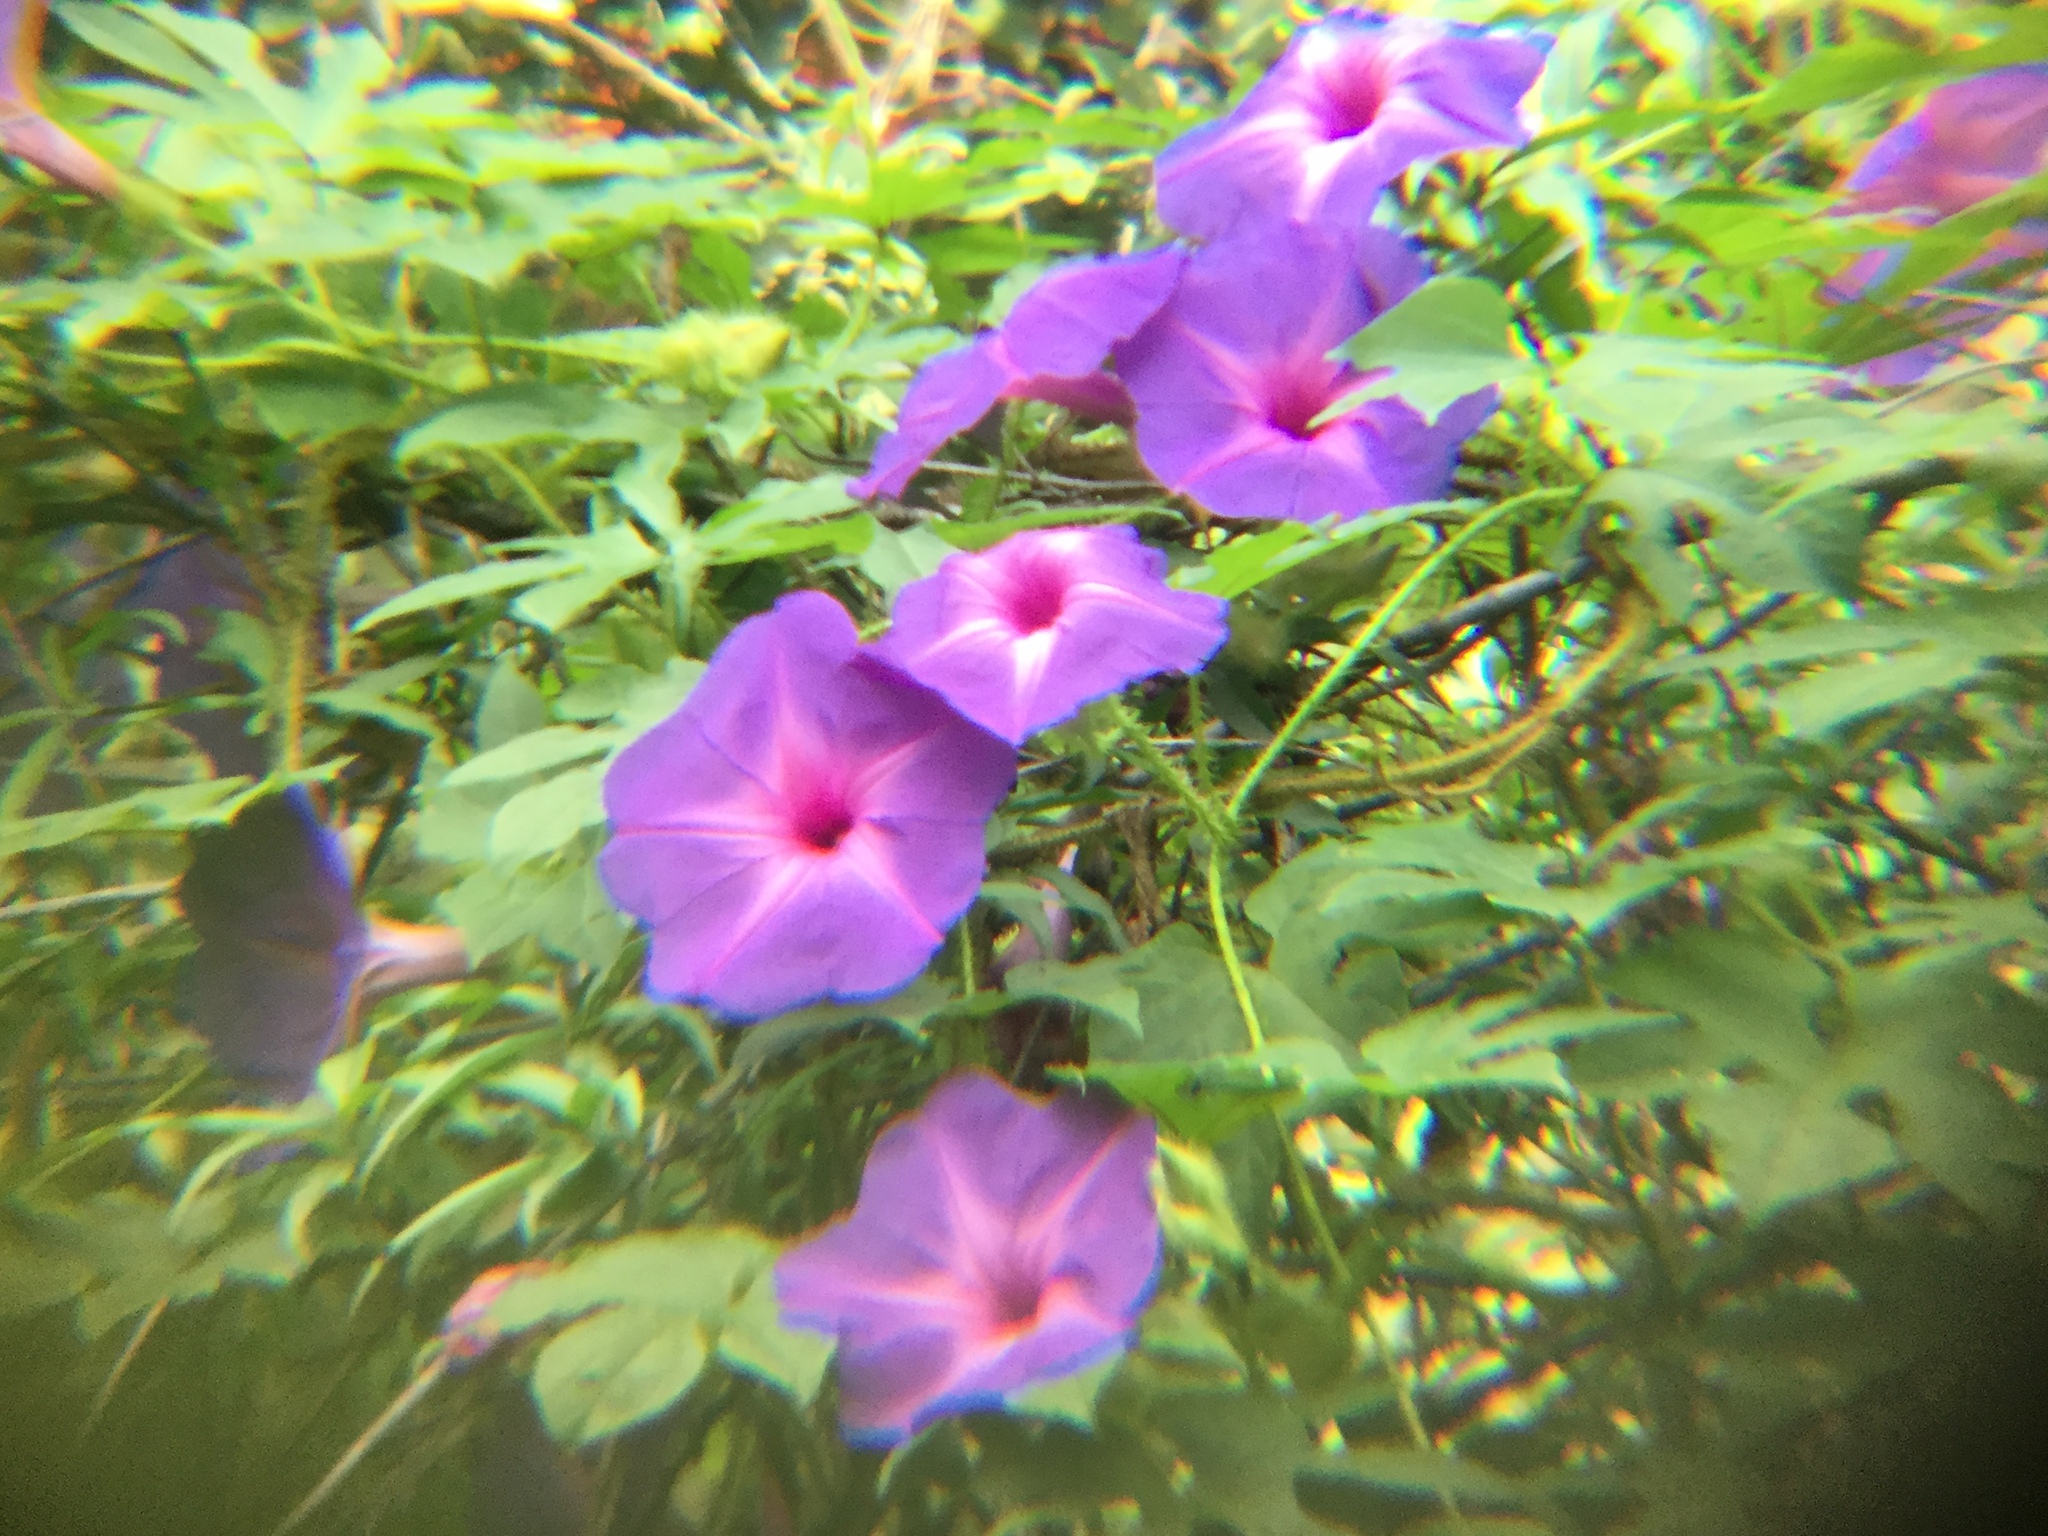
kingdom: Plantae
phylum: Tracheophyta
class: Magnoliopsida
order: Solanales
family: Convolvulaceae
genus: Ipomoea
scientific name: Ipomoea setosa
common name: Brazilian morning-glory
